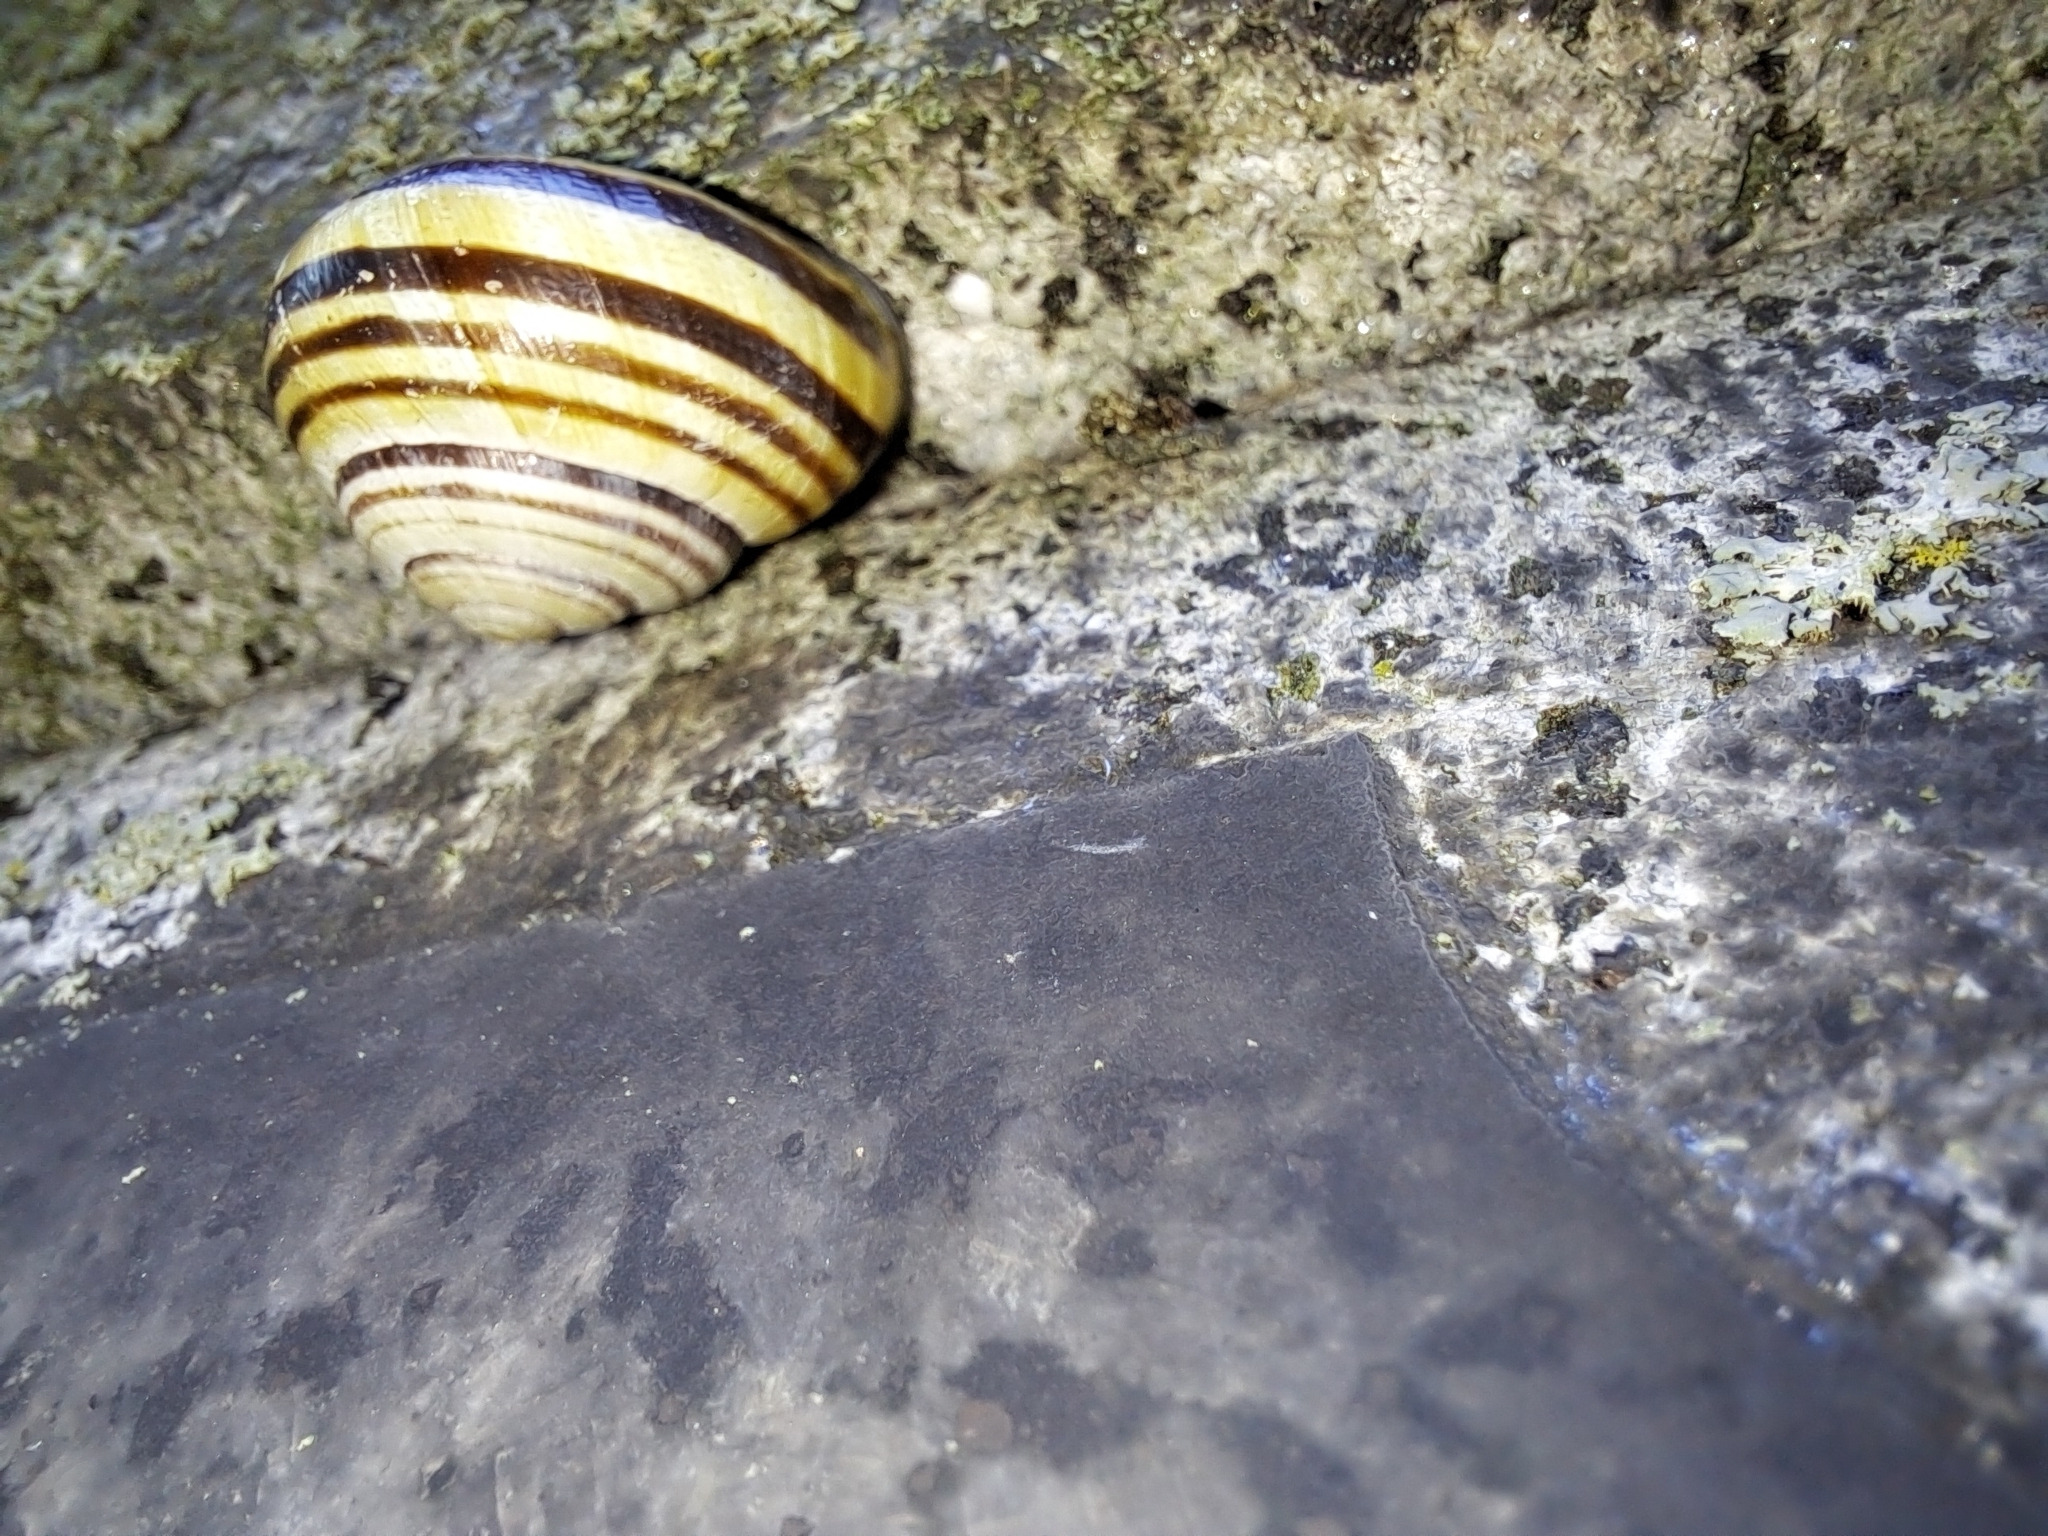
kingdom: Animalia
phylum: Mollusca
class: Gastropoda
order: Stylommatophora
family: Helicidae
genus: Cepaea
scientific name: Cepaea nemoralis
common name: Grovesnail
